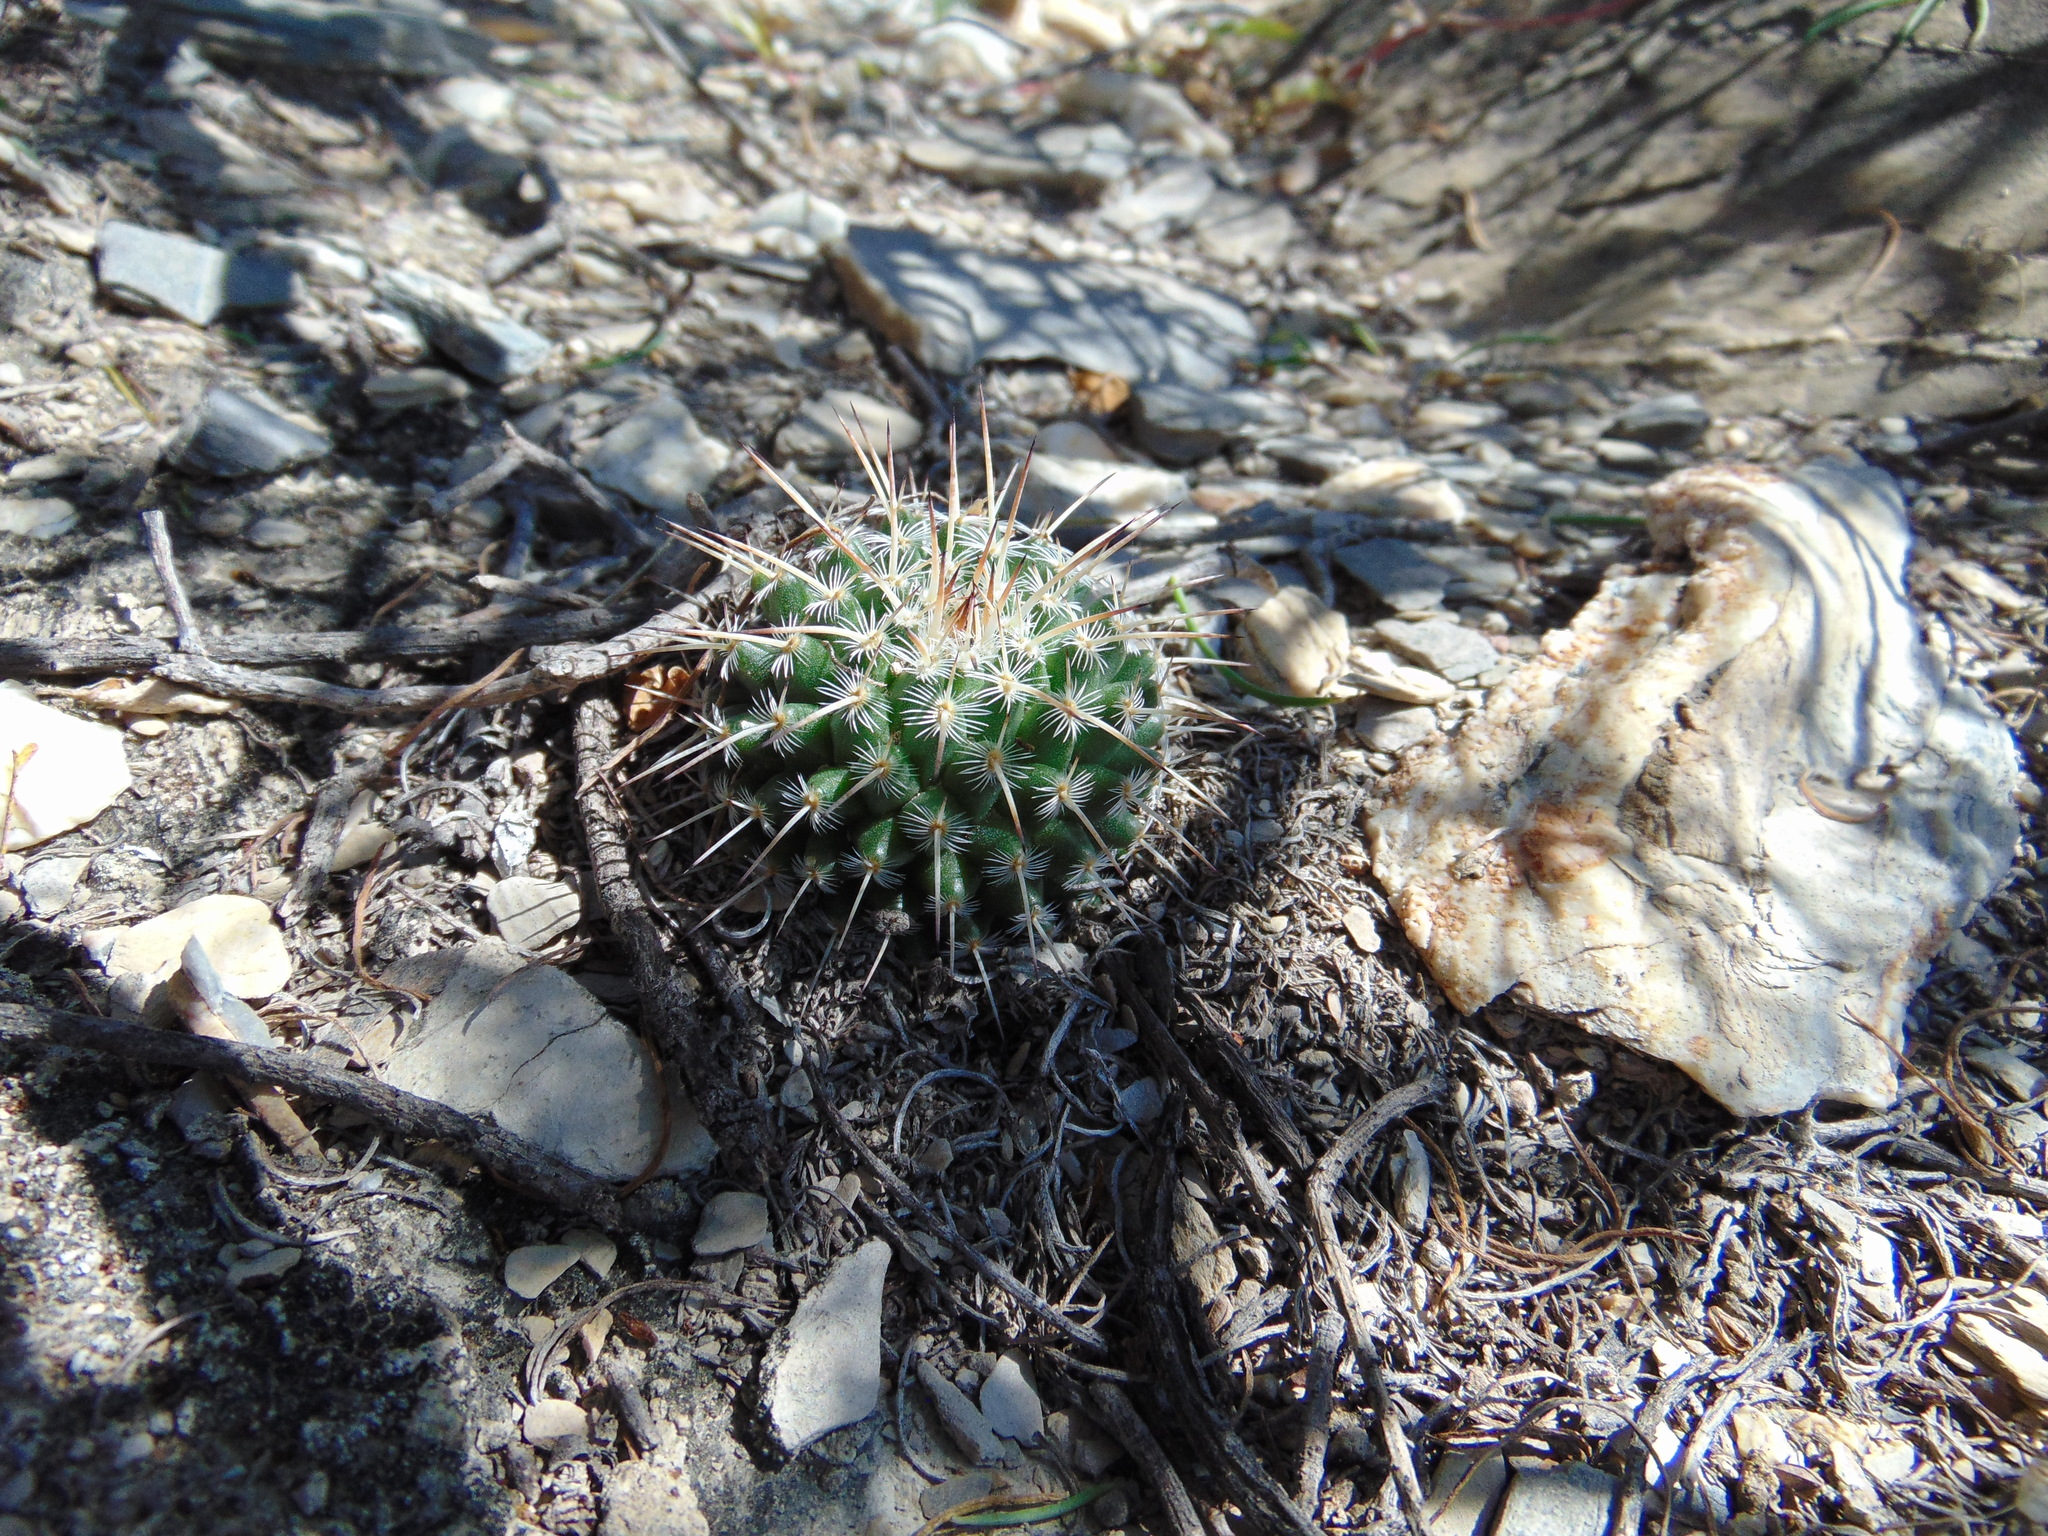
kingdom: Plantae
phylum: Tracheophyta
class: Magnoliopsida
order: Caryophyllales
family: Cactaceae
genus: Mammillaria
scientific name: Mammillaria parkinsonii
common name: Owl's-eye
